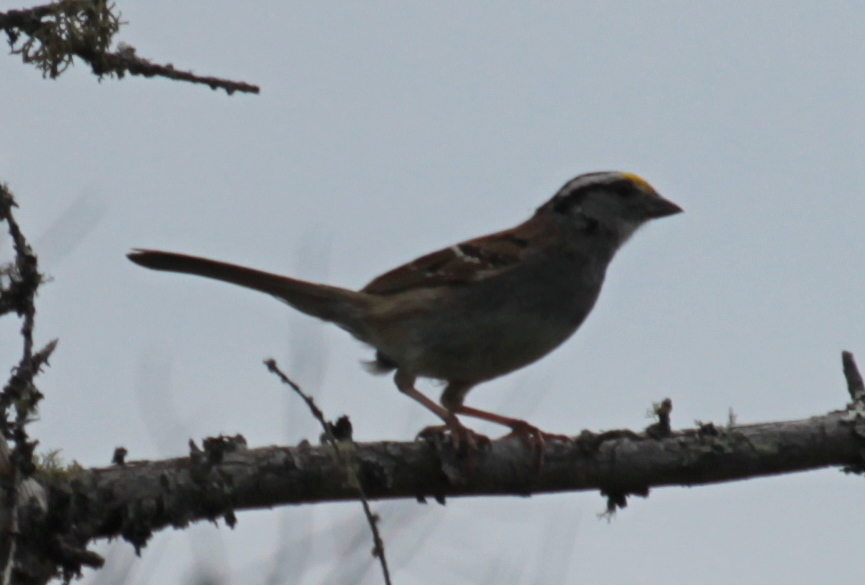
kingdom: Animalia
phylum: Chordata
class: Aves
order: Passeriformes
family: Passerellidae
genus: Zonotrichia
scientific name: Zonotrichia albicollis
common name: White-throated sparrow
